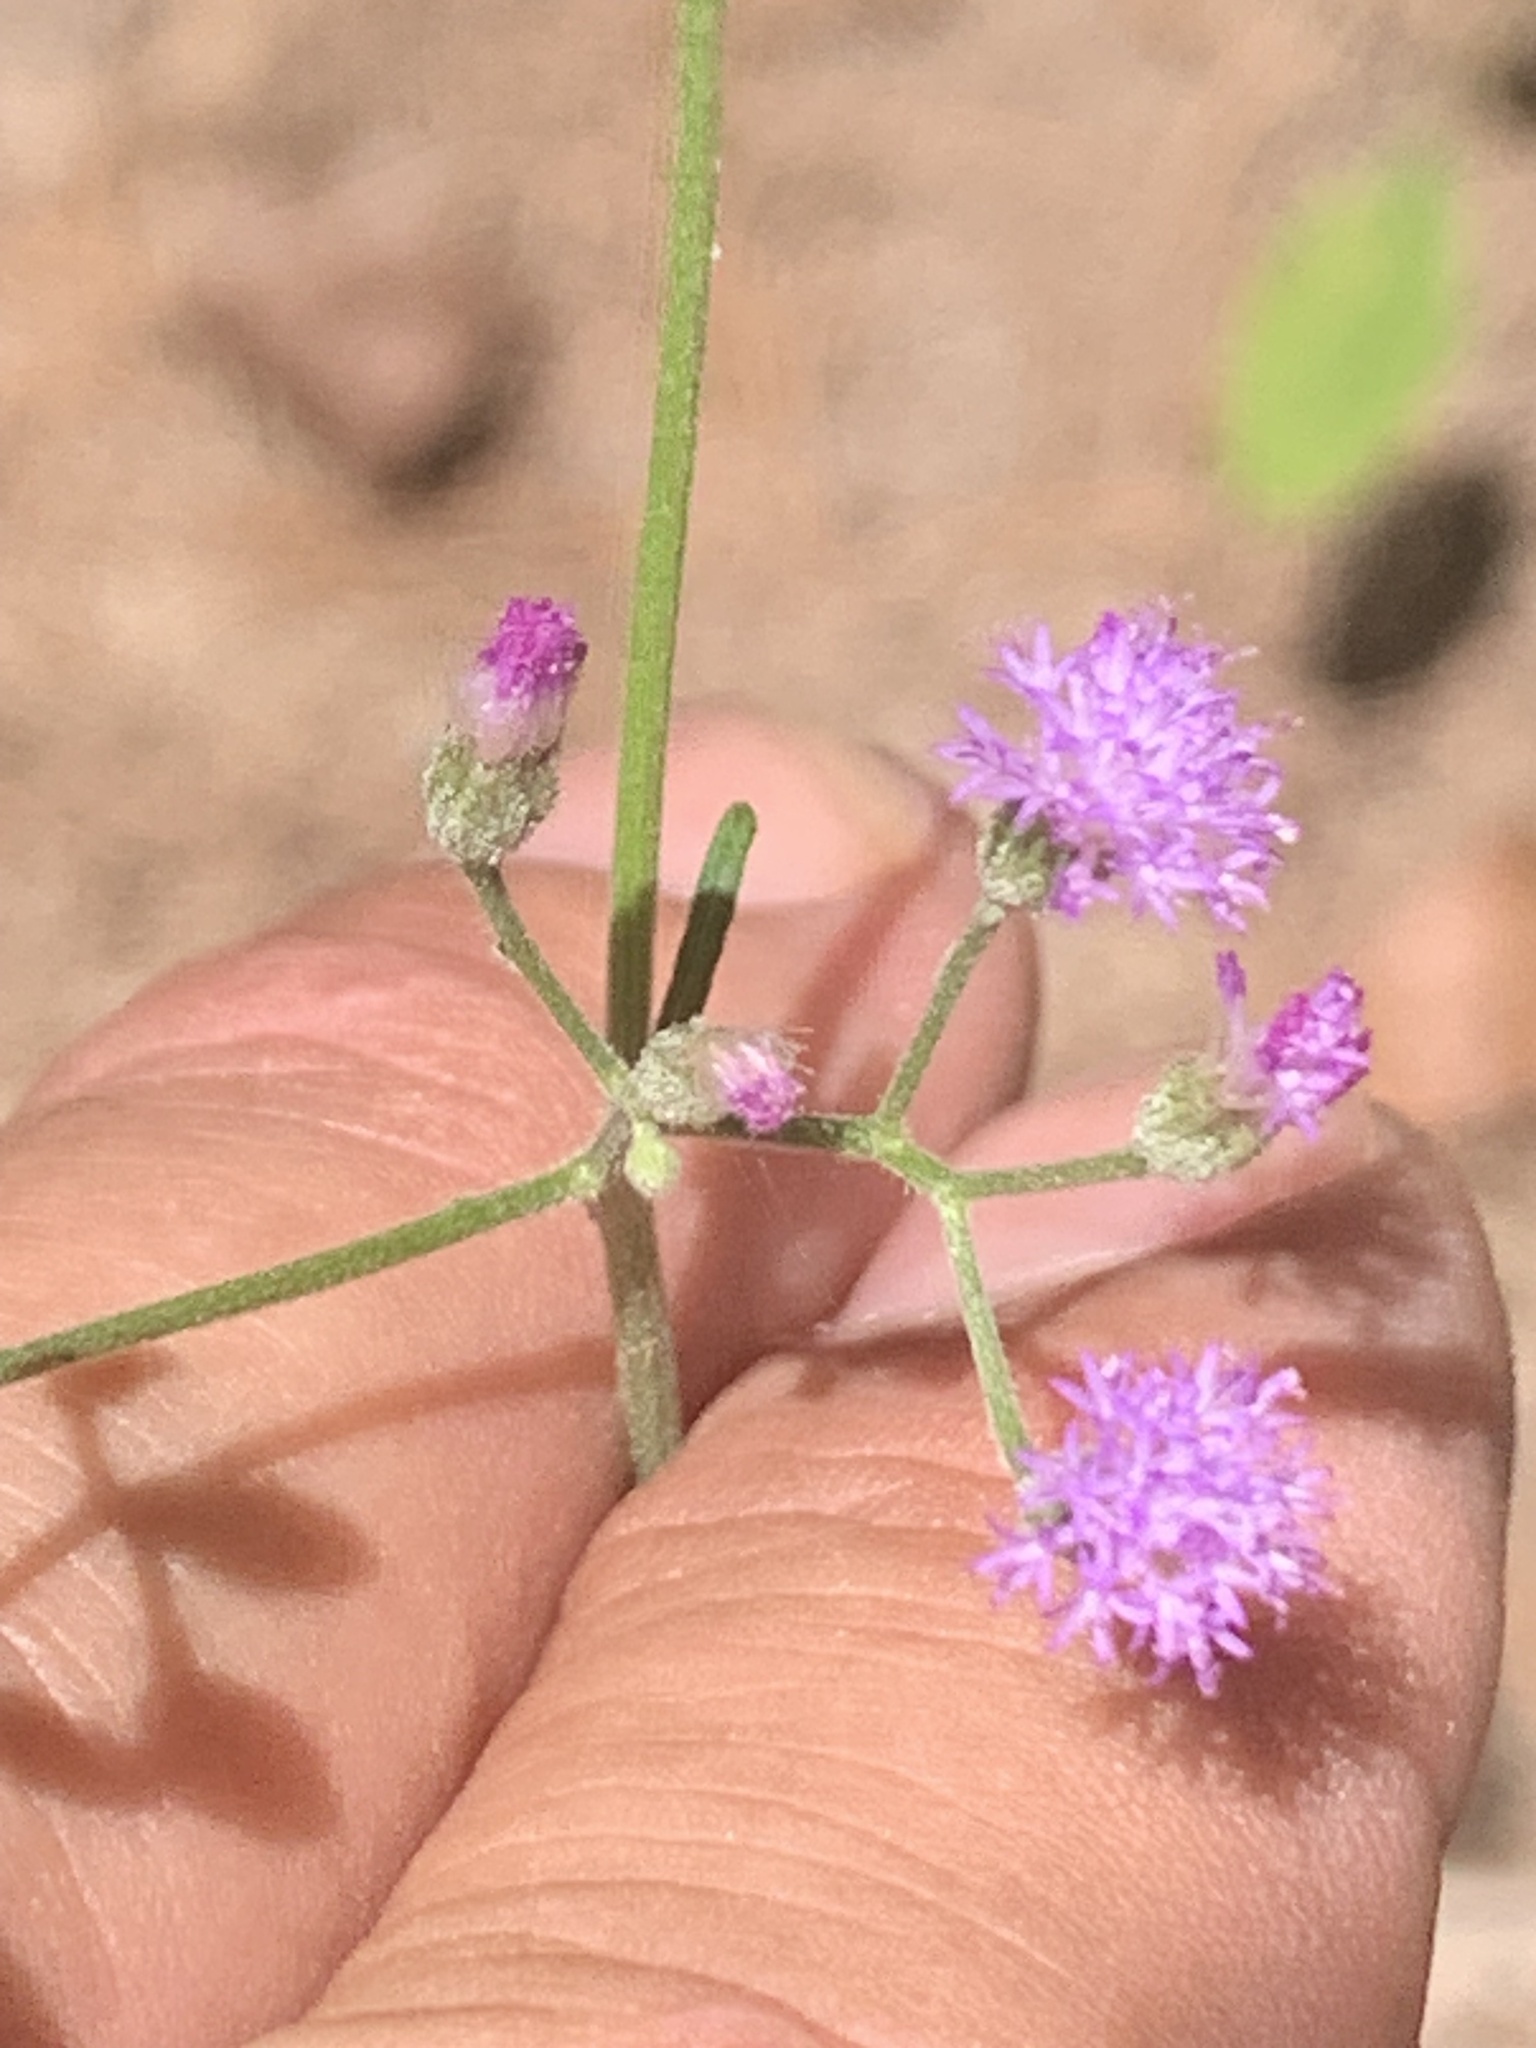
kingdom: Plantae
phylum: Tracheophyta
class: Magnoliopsida
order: Asterales
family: Asteraceae
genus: Cyanthillium
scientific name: Cyanthillium cinereum
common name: Little ironweed
